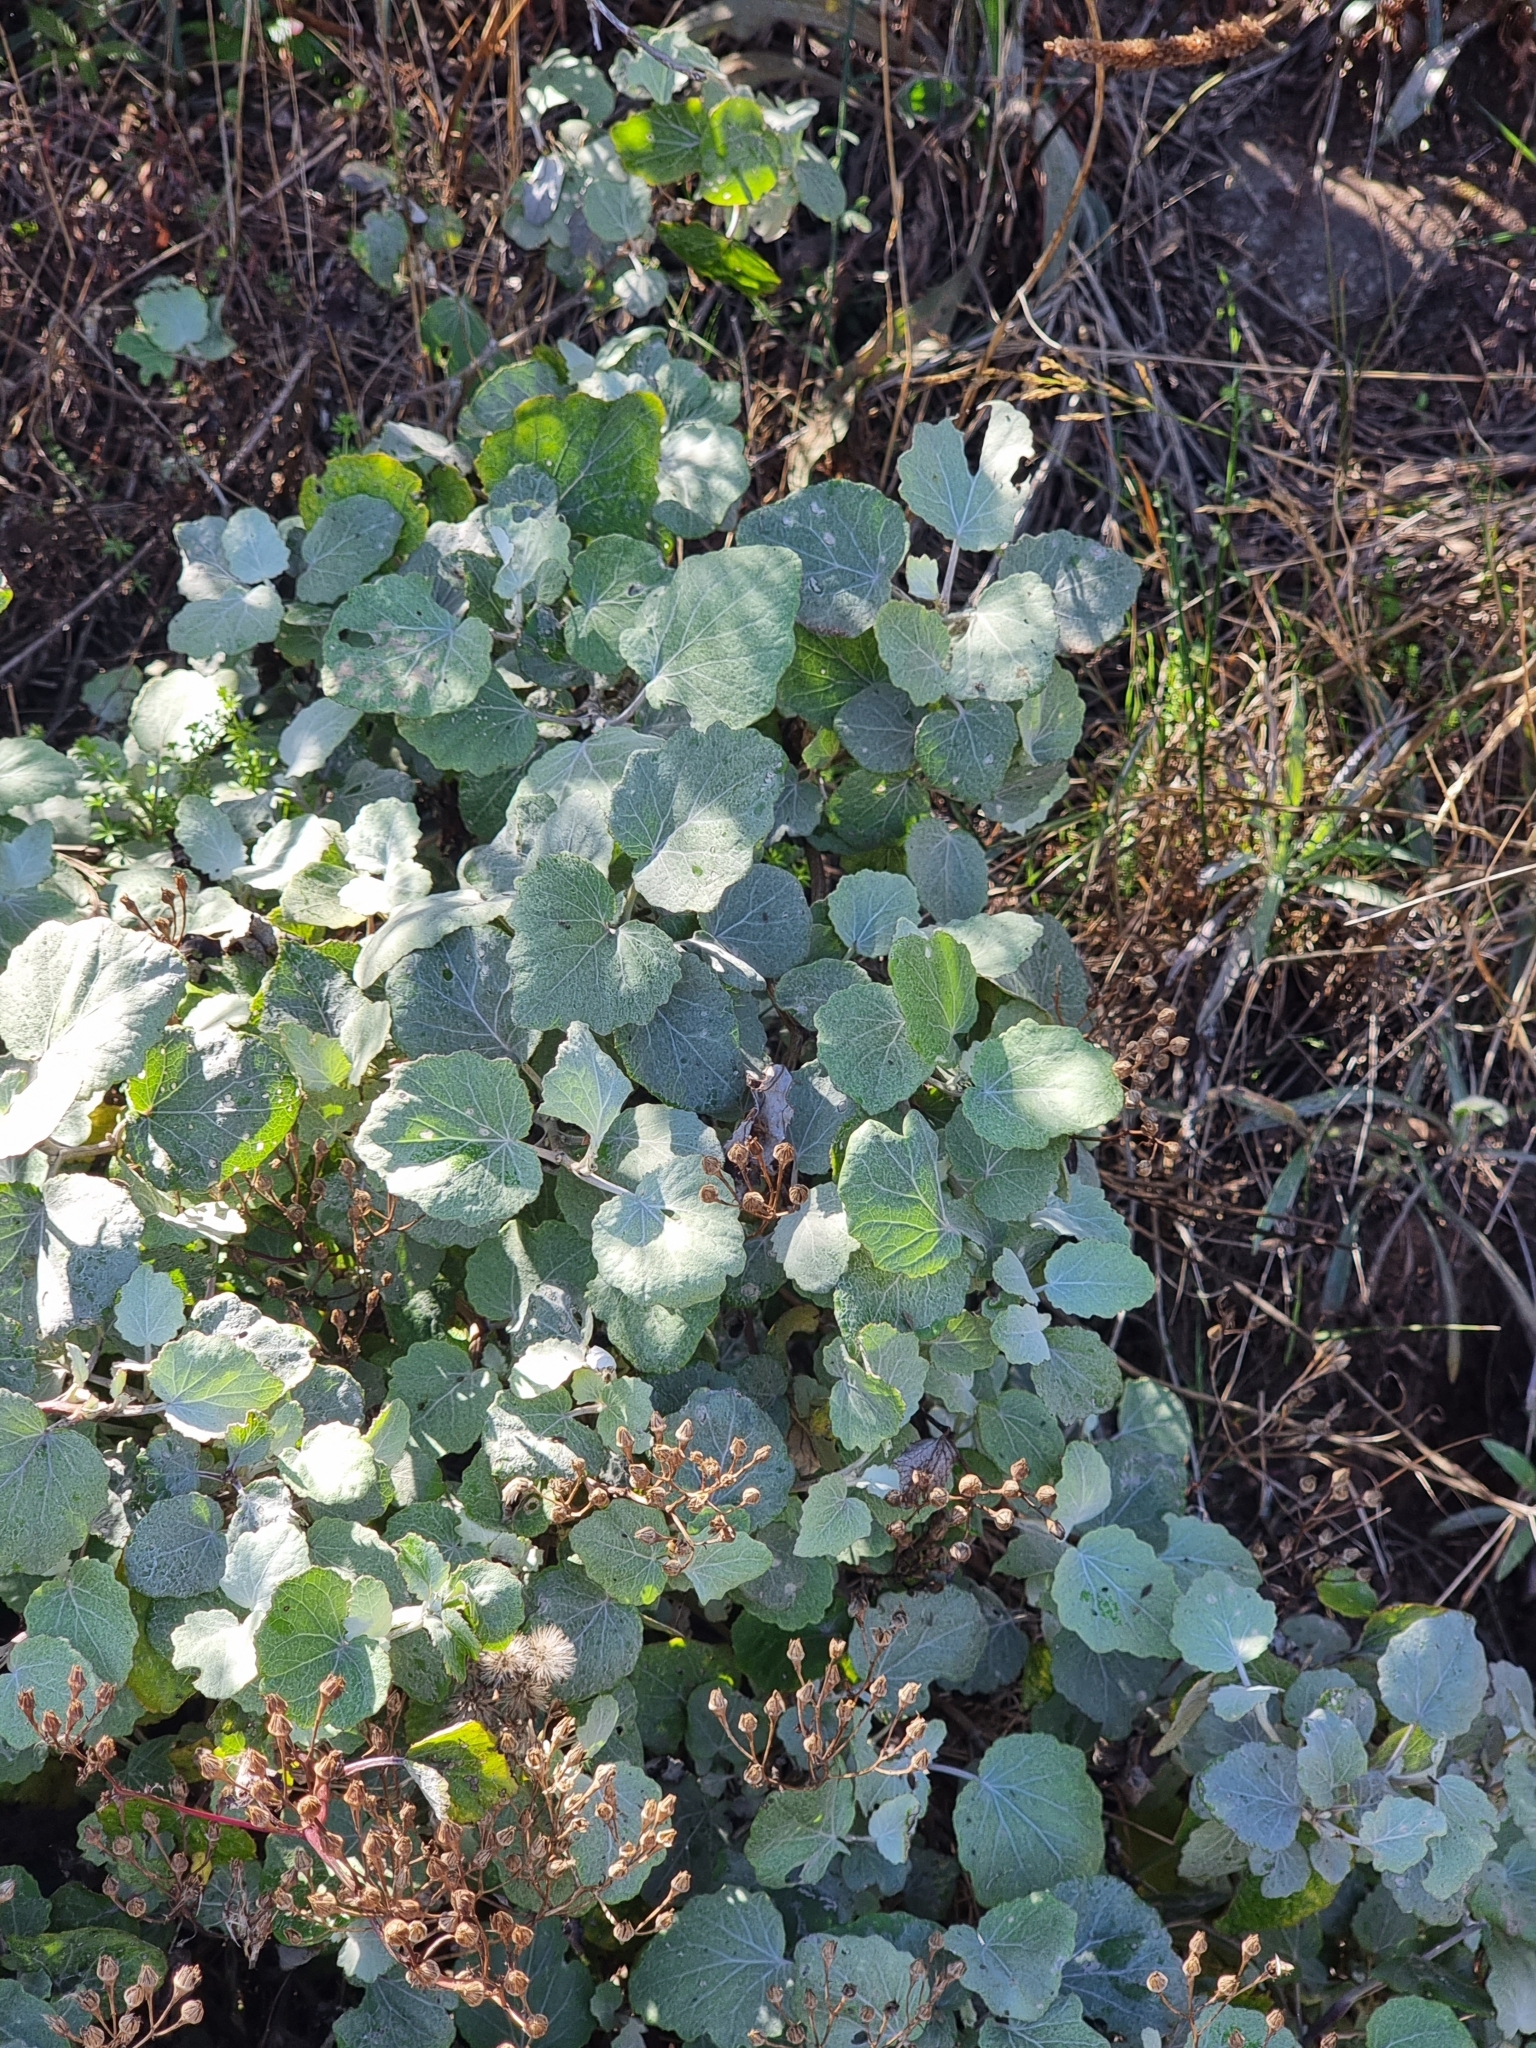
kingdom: Plantae
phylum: Tracheophyta
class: Magnoliopsida
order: Asterales
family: Asteraceae
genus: Pericallis
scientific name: Pericallis aurita
